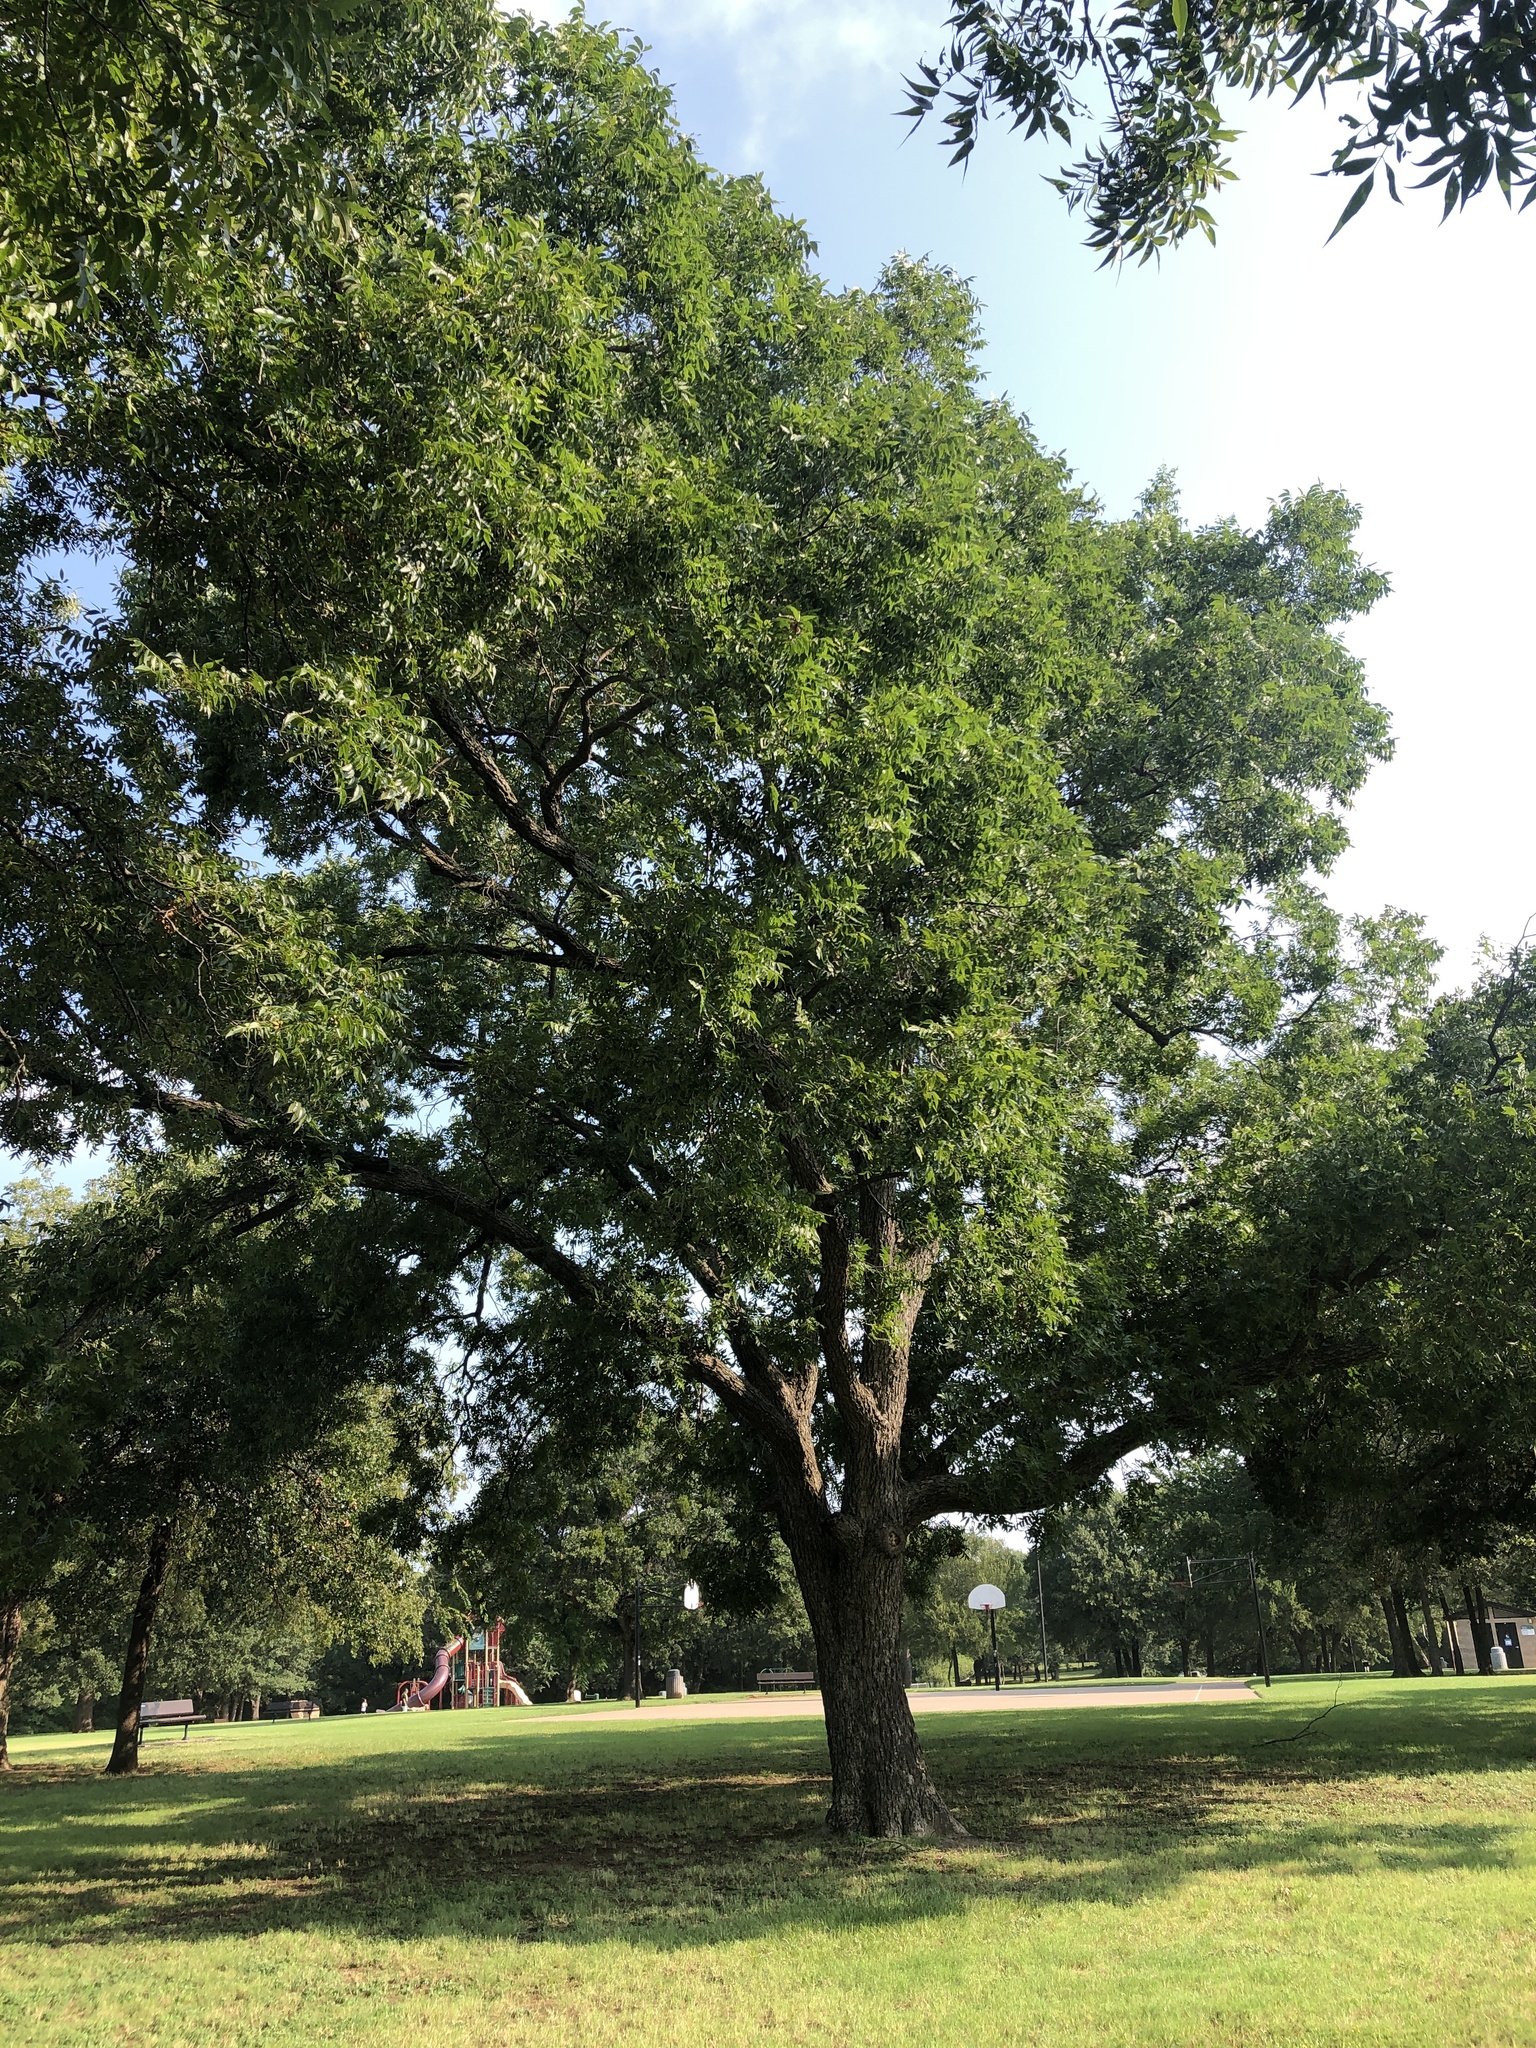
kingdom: Plantae
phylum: Tracheophyta
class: Magnoliopsida
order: Fagales
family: Juglandaceae
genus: Carya
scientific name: Carya illinoinensis
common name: Pecan
